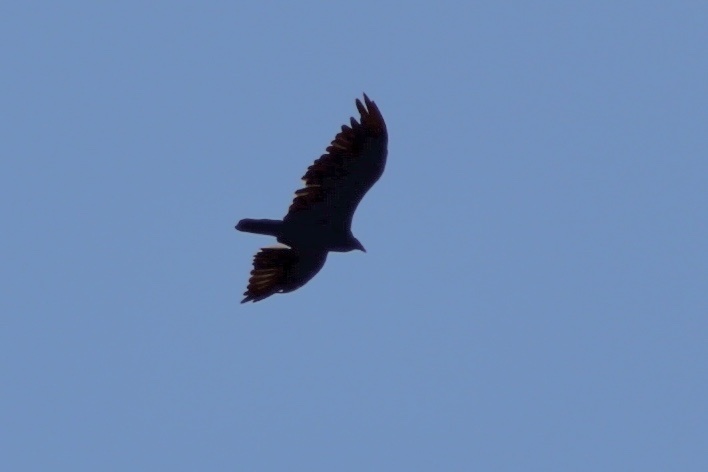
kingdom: Animalia
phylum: Chordata
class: Aves
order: Accipitriformes
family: Cathartidae
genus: Cathartes
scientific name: Cathartes aura
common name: Turkey vulture
